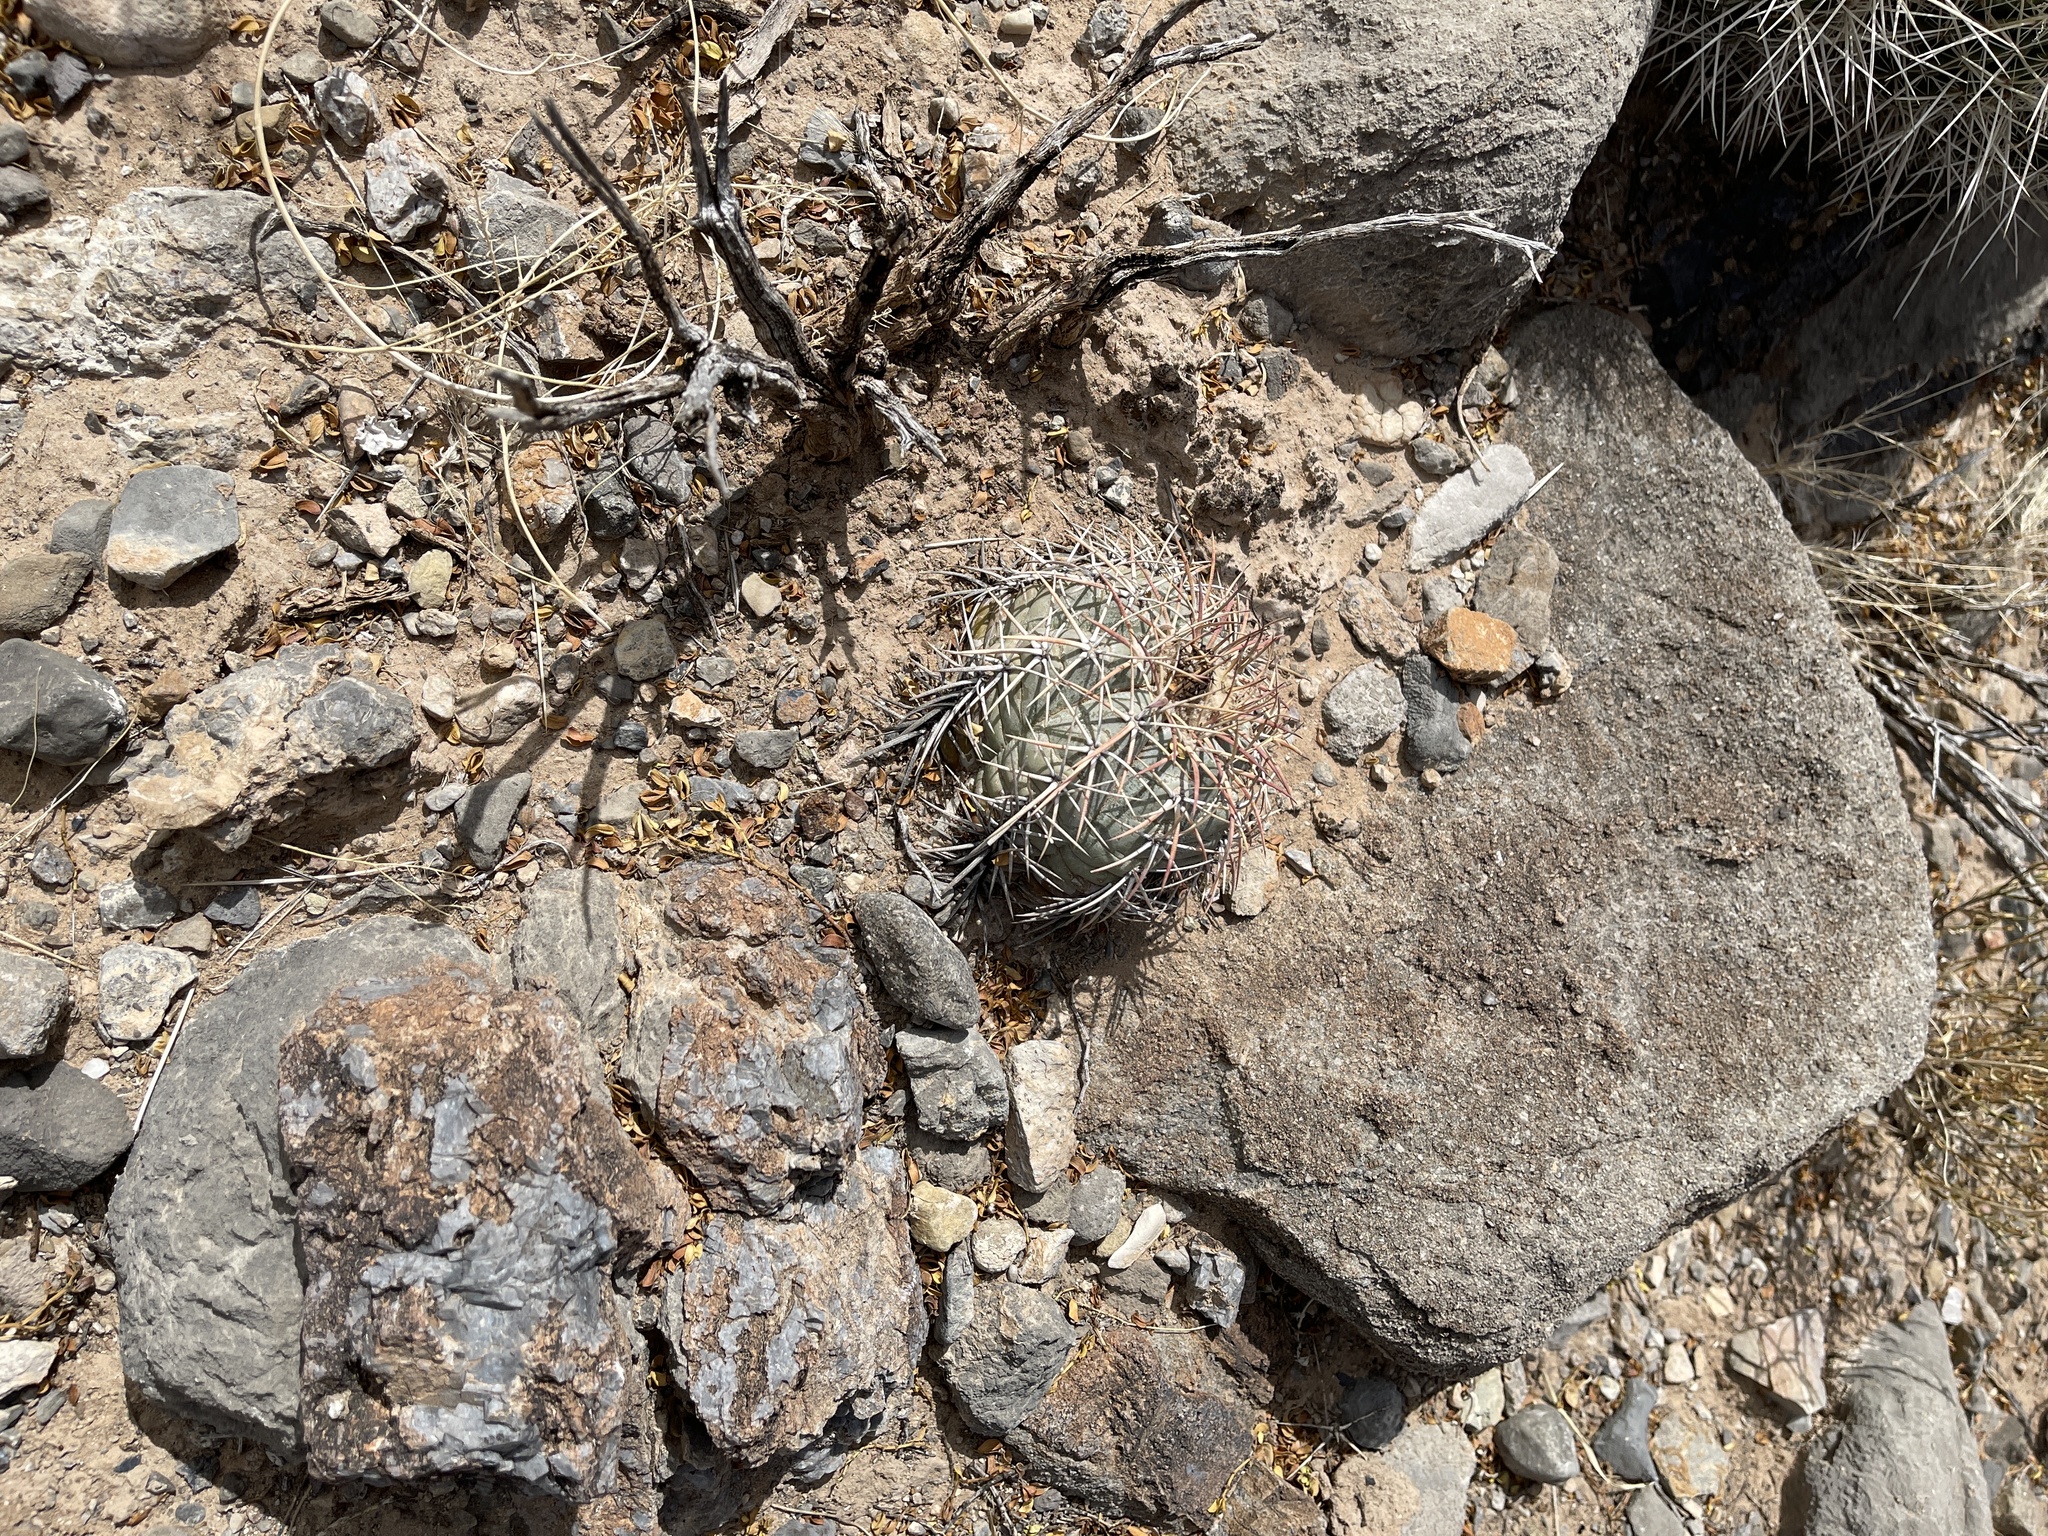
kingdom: Plantae
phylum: Tracheophyta
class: Magnoliopsida
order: Caryophyllales
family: Cactaceae
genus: Echinocactus
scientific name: Echinocactus horizonthalonius
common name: Devilshead
